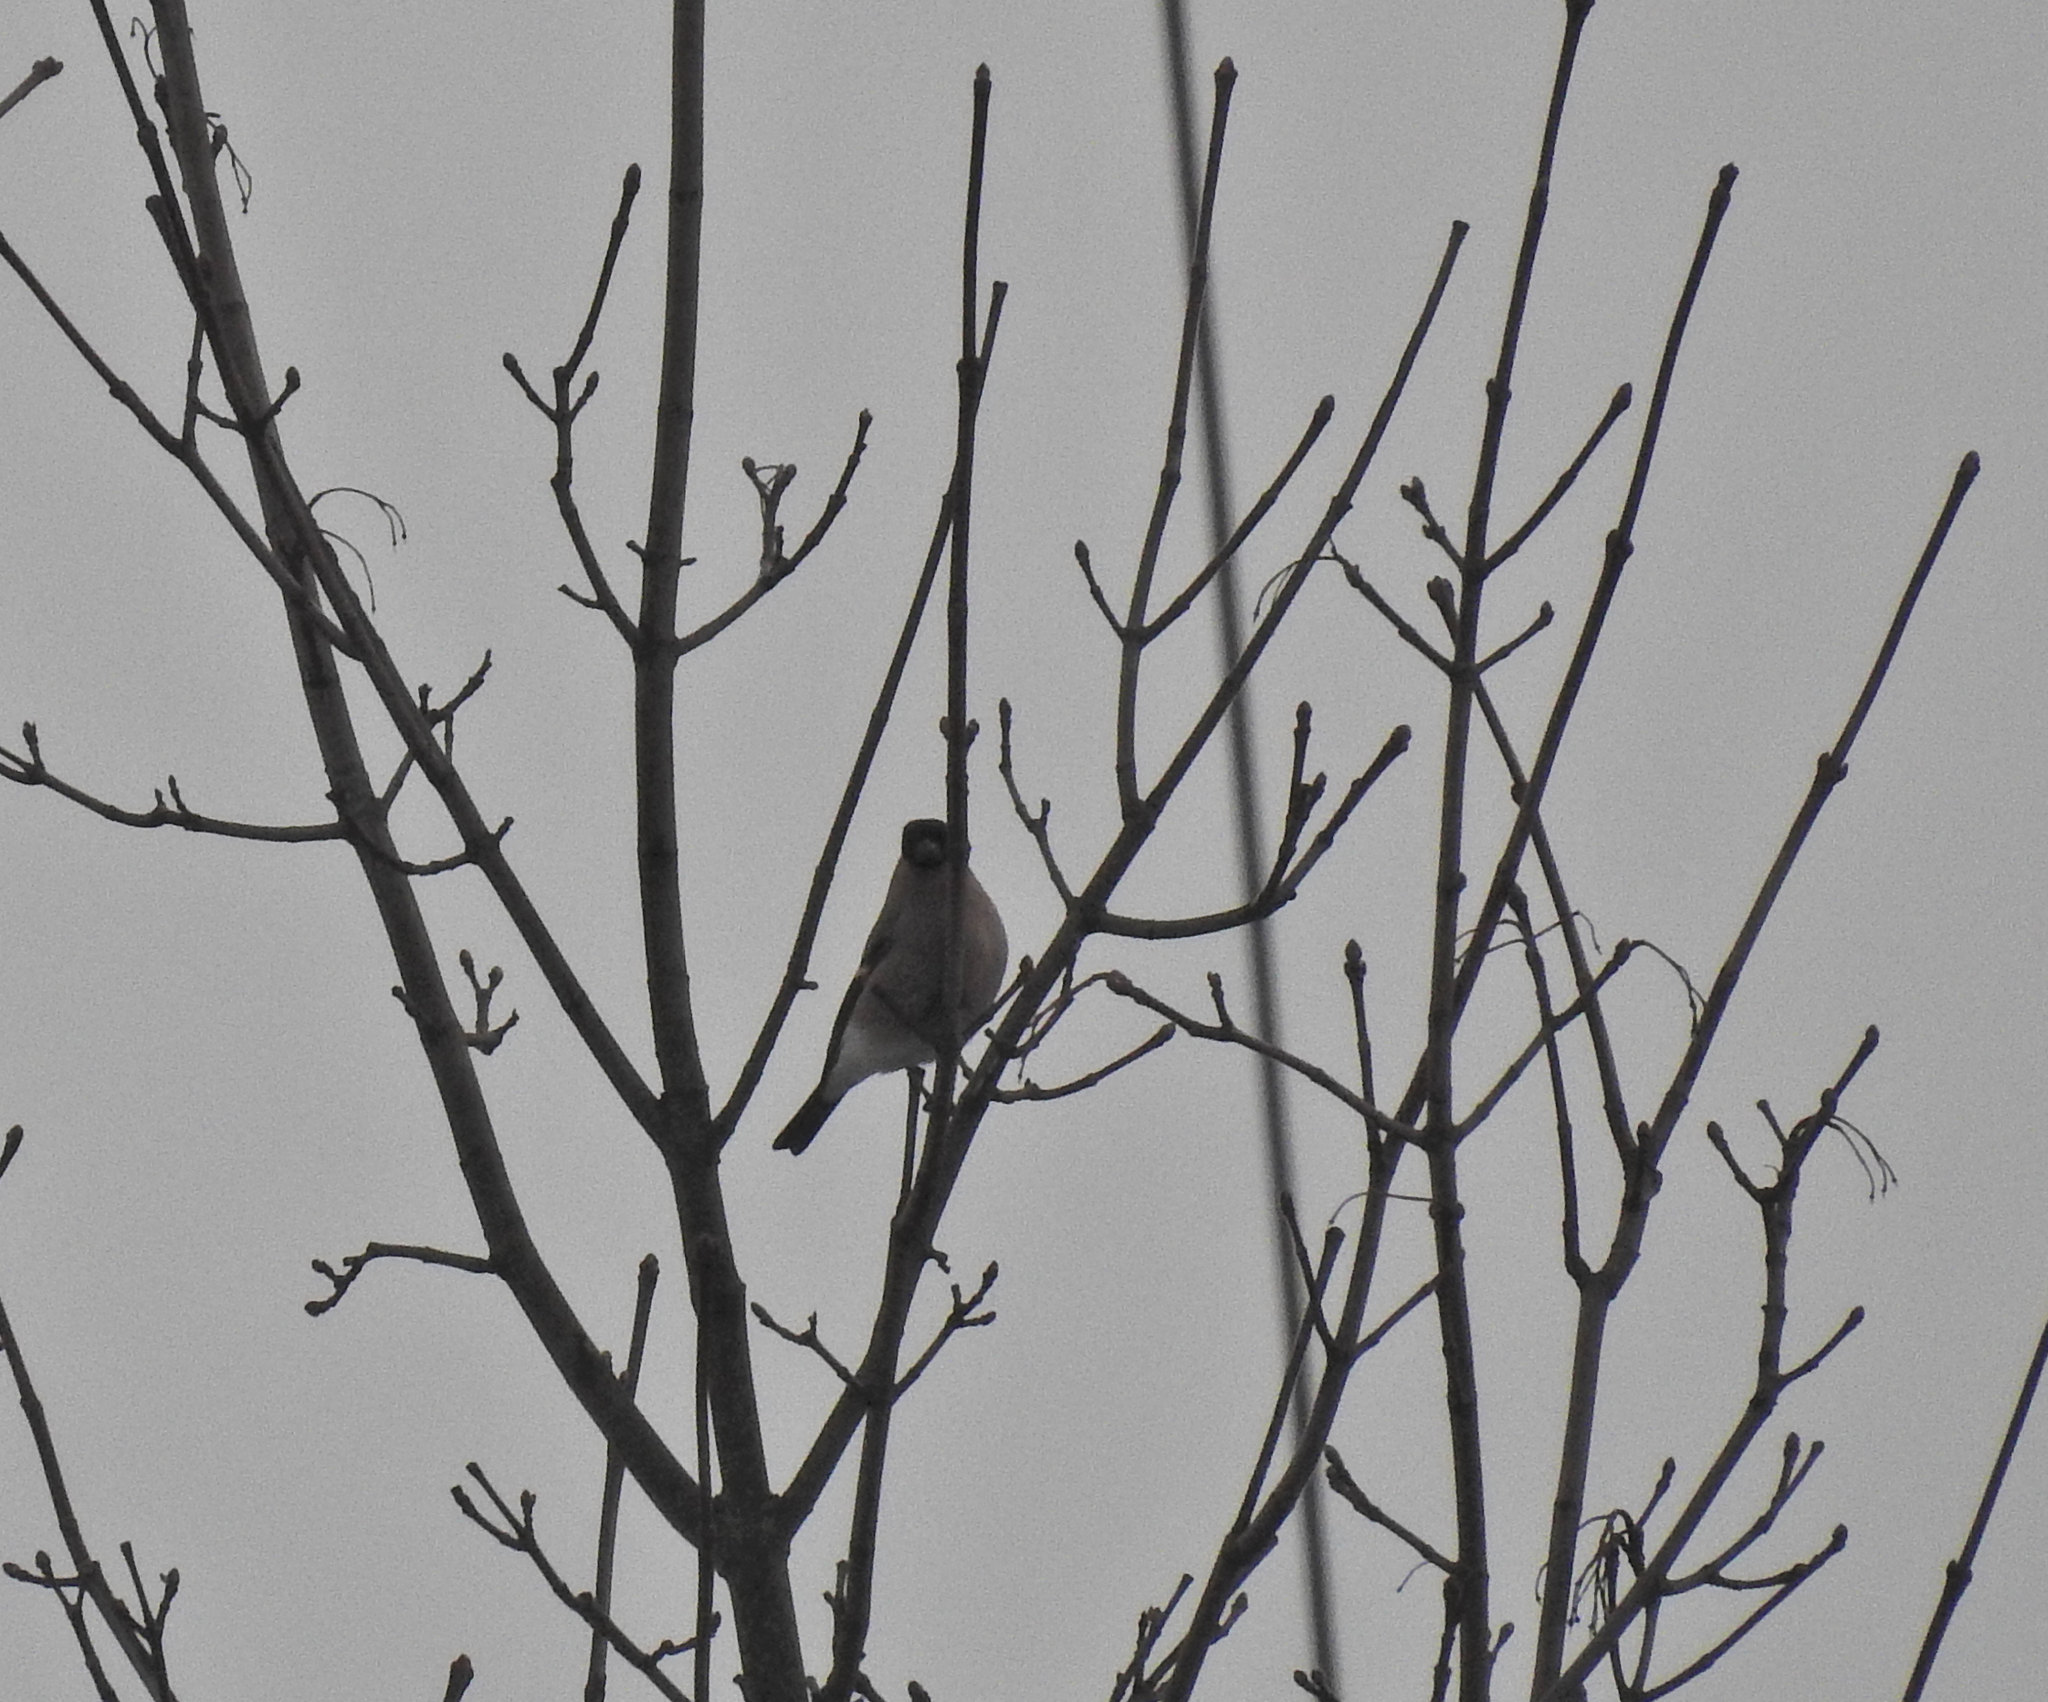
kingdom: Animalia
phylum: Chordata
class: Aves
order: Passeriformes
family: Fringillidae
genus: Pyrrhula
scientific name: Pyrrhula pyrrhula
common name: Eurasian bullfinch
